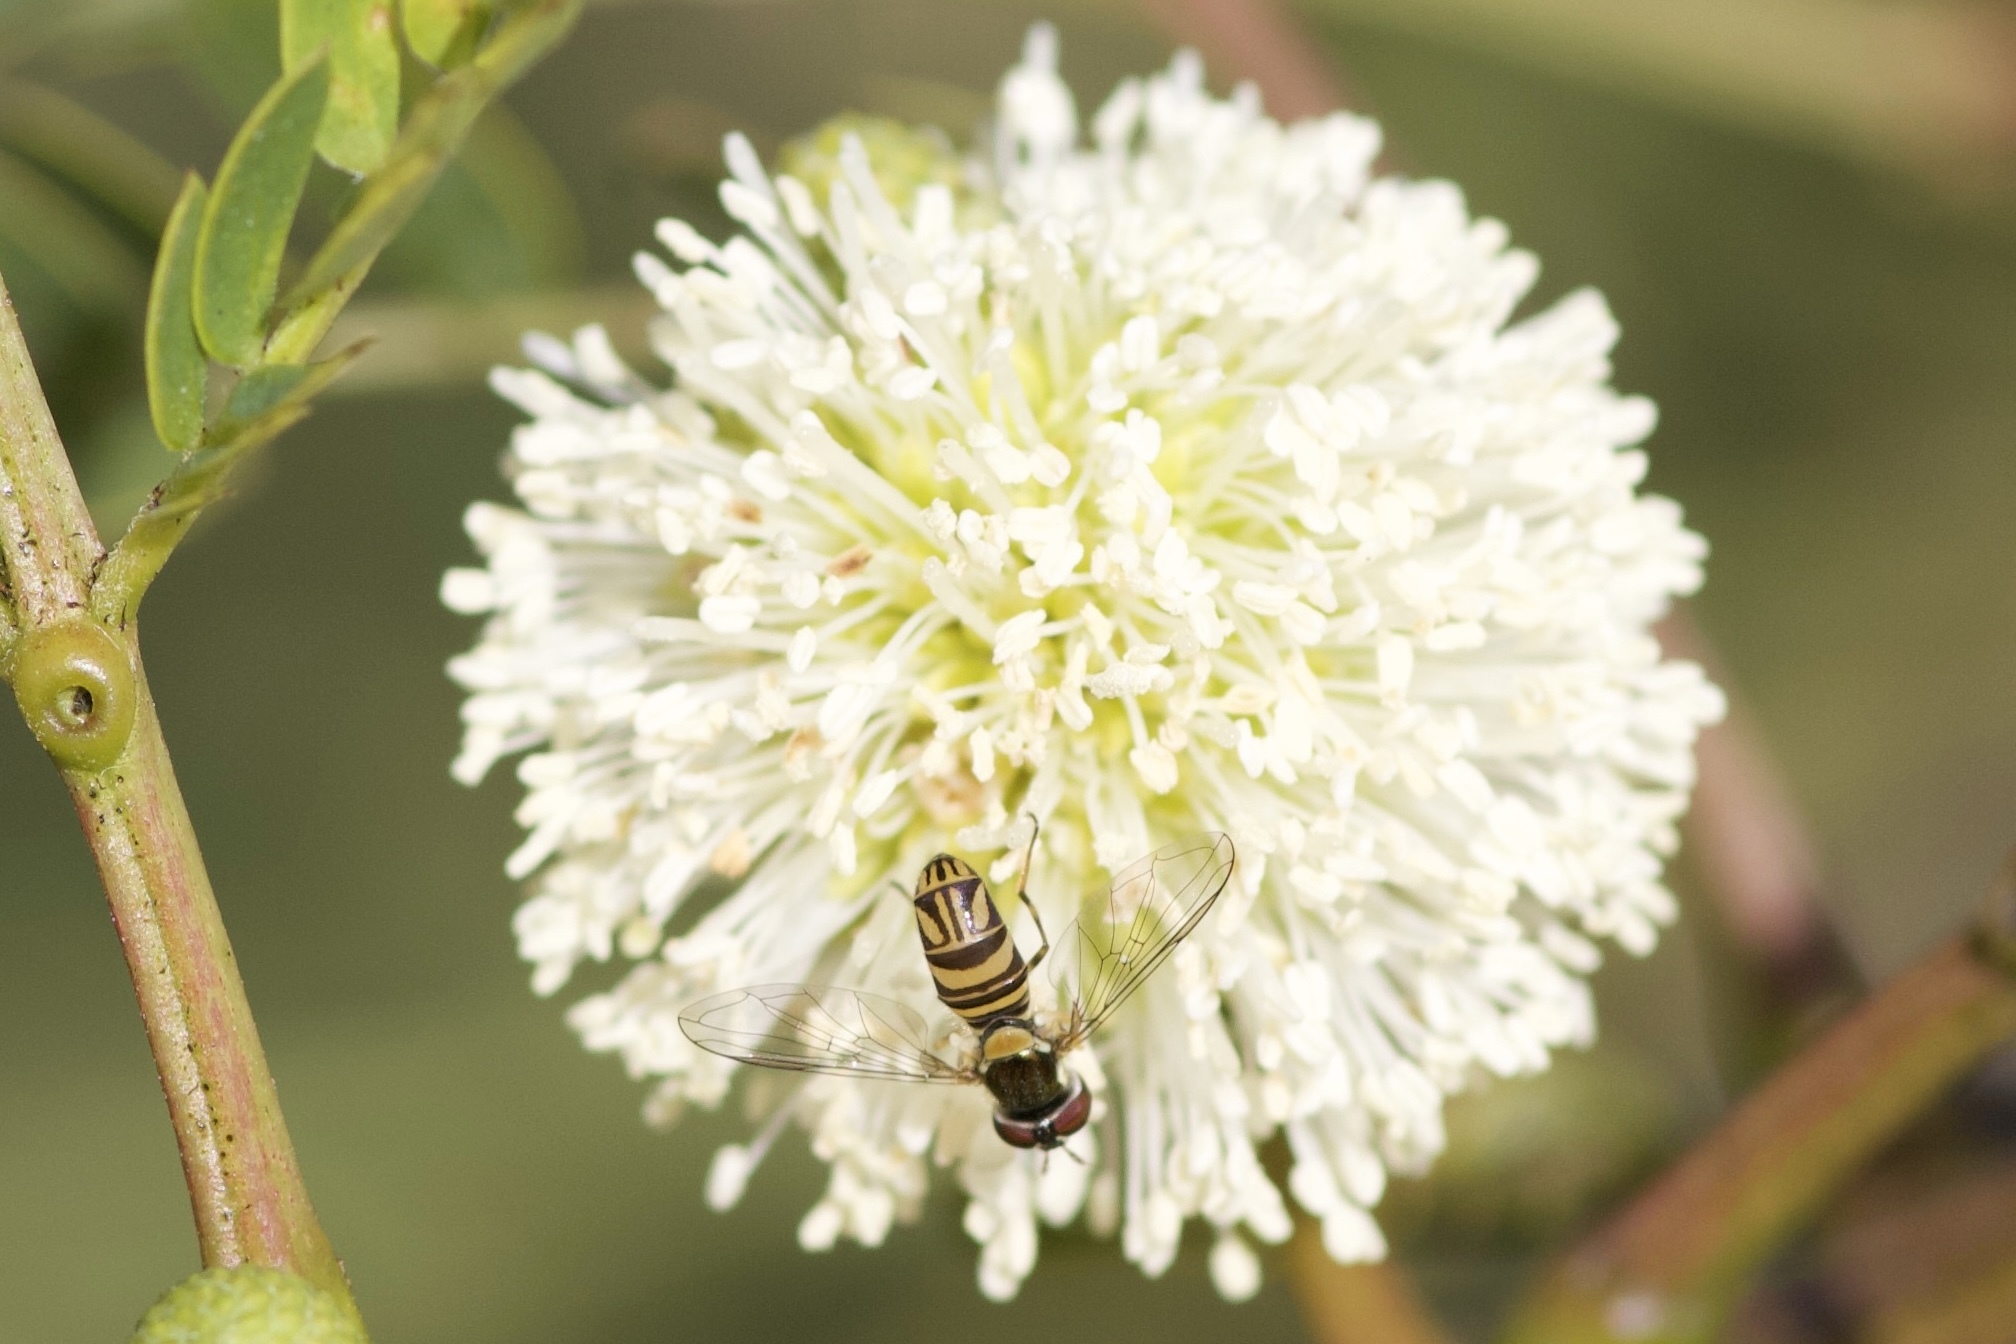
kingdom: Animalia
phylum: Arthropoda
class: Insecta
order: Diptera
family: Syrphidae
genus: Allograpta
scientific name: Allograpta obliqua
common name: Common oblique syrphid
